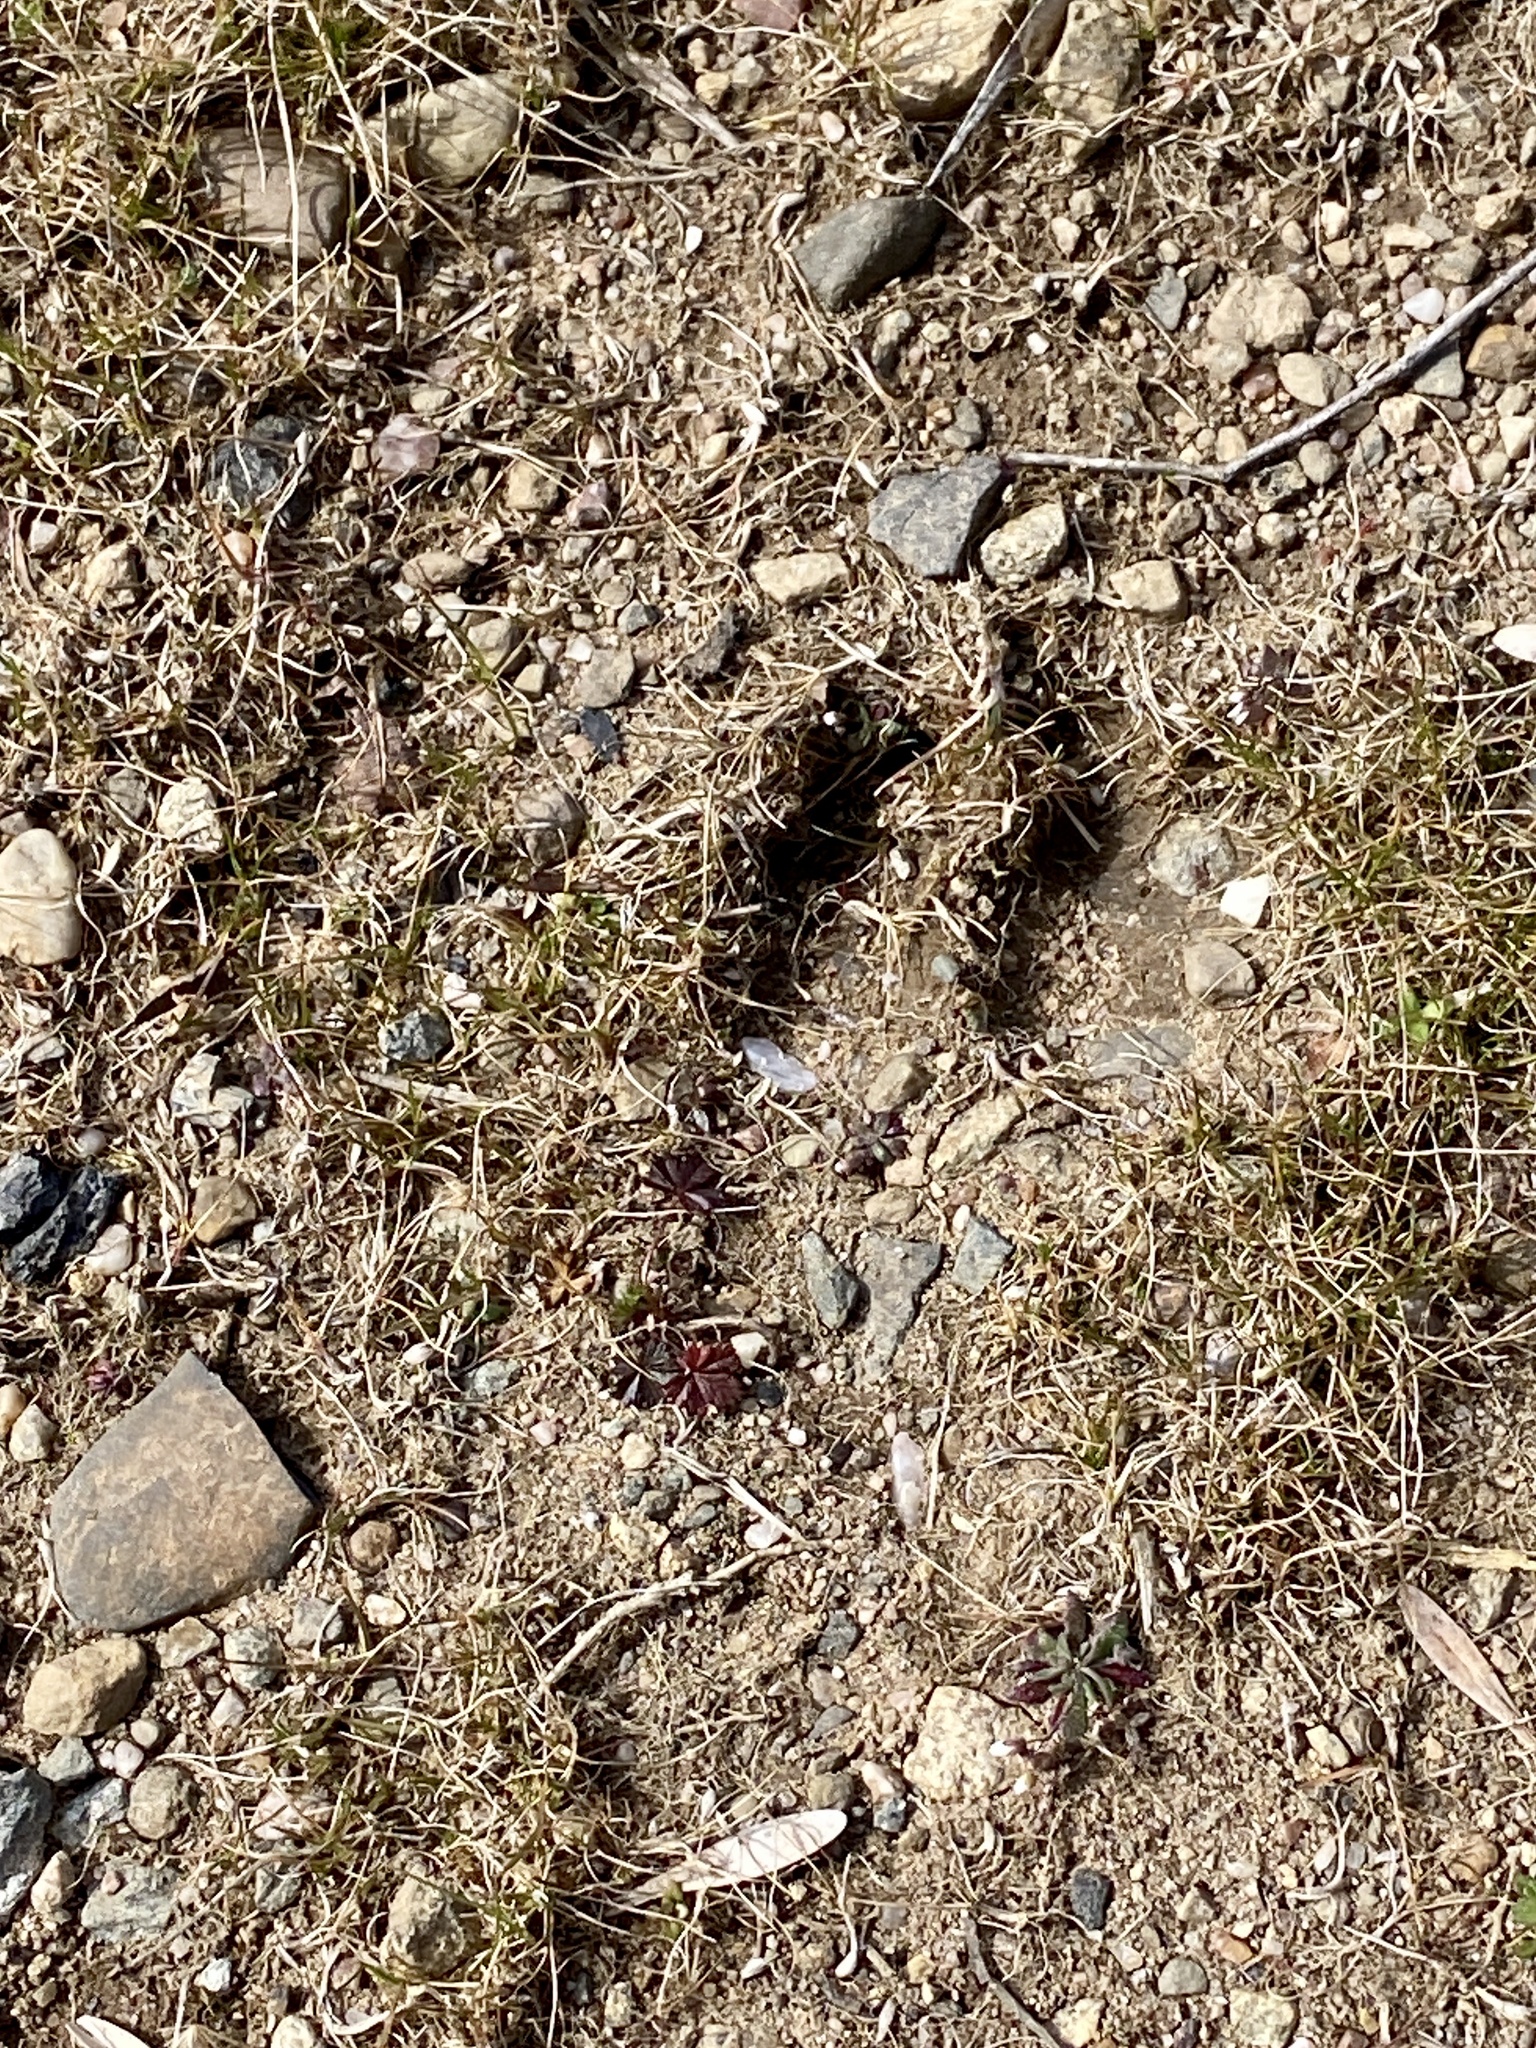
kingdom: Animalia
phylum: Chordata
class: Mammalia
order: Artiodactyla
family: Cervidae
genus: Odocoileus
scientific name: Odocoileus virginianus
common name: White-tailed deer
